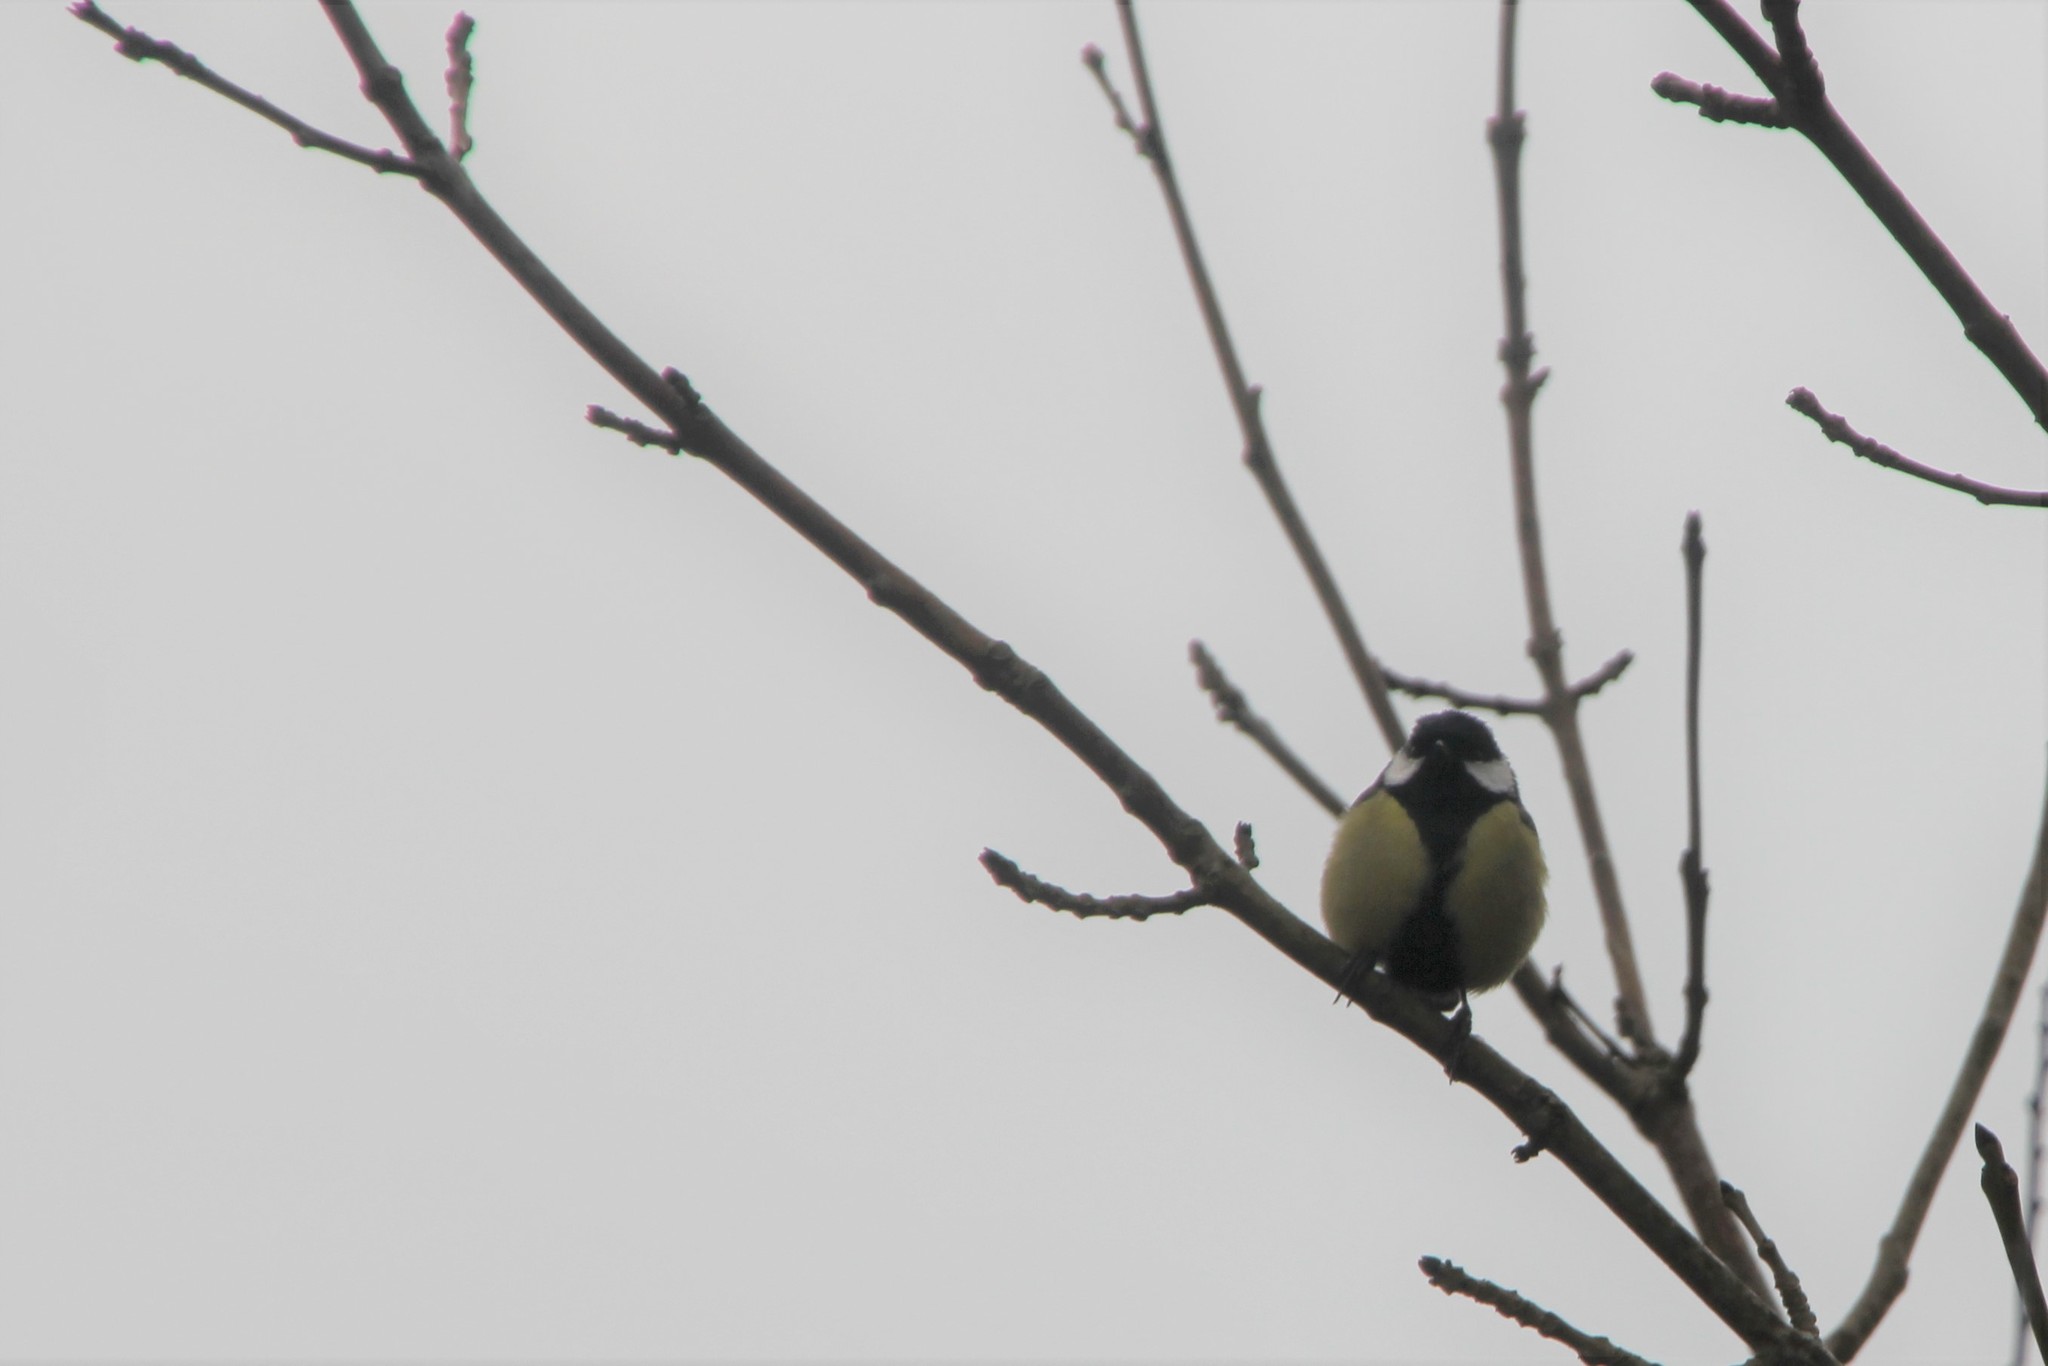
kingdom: Animalia
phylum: Chordata
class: Aves
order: Passeriformes
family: Paridae
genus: Parus
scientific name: Parus major
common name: Great tit
